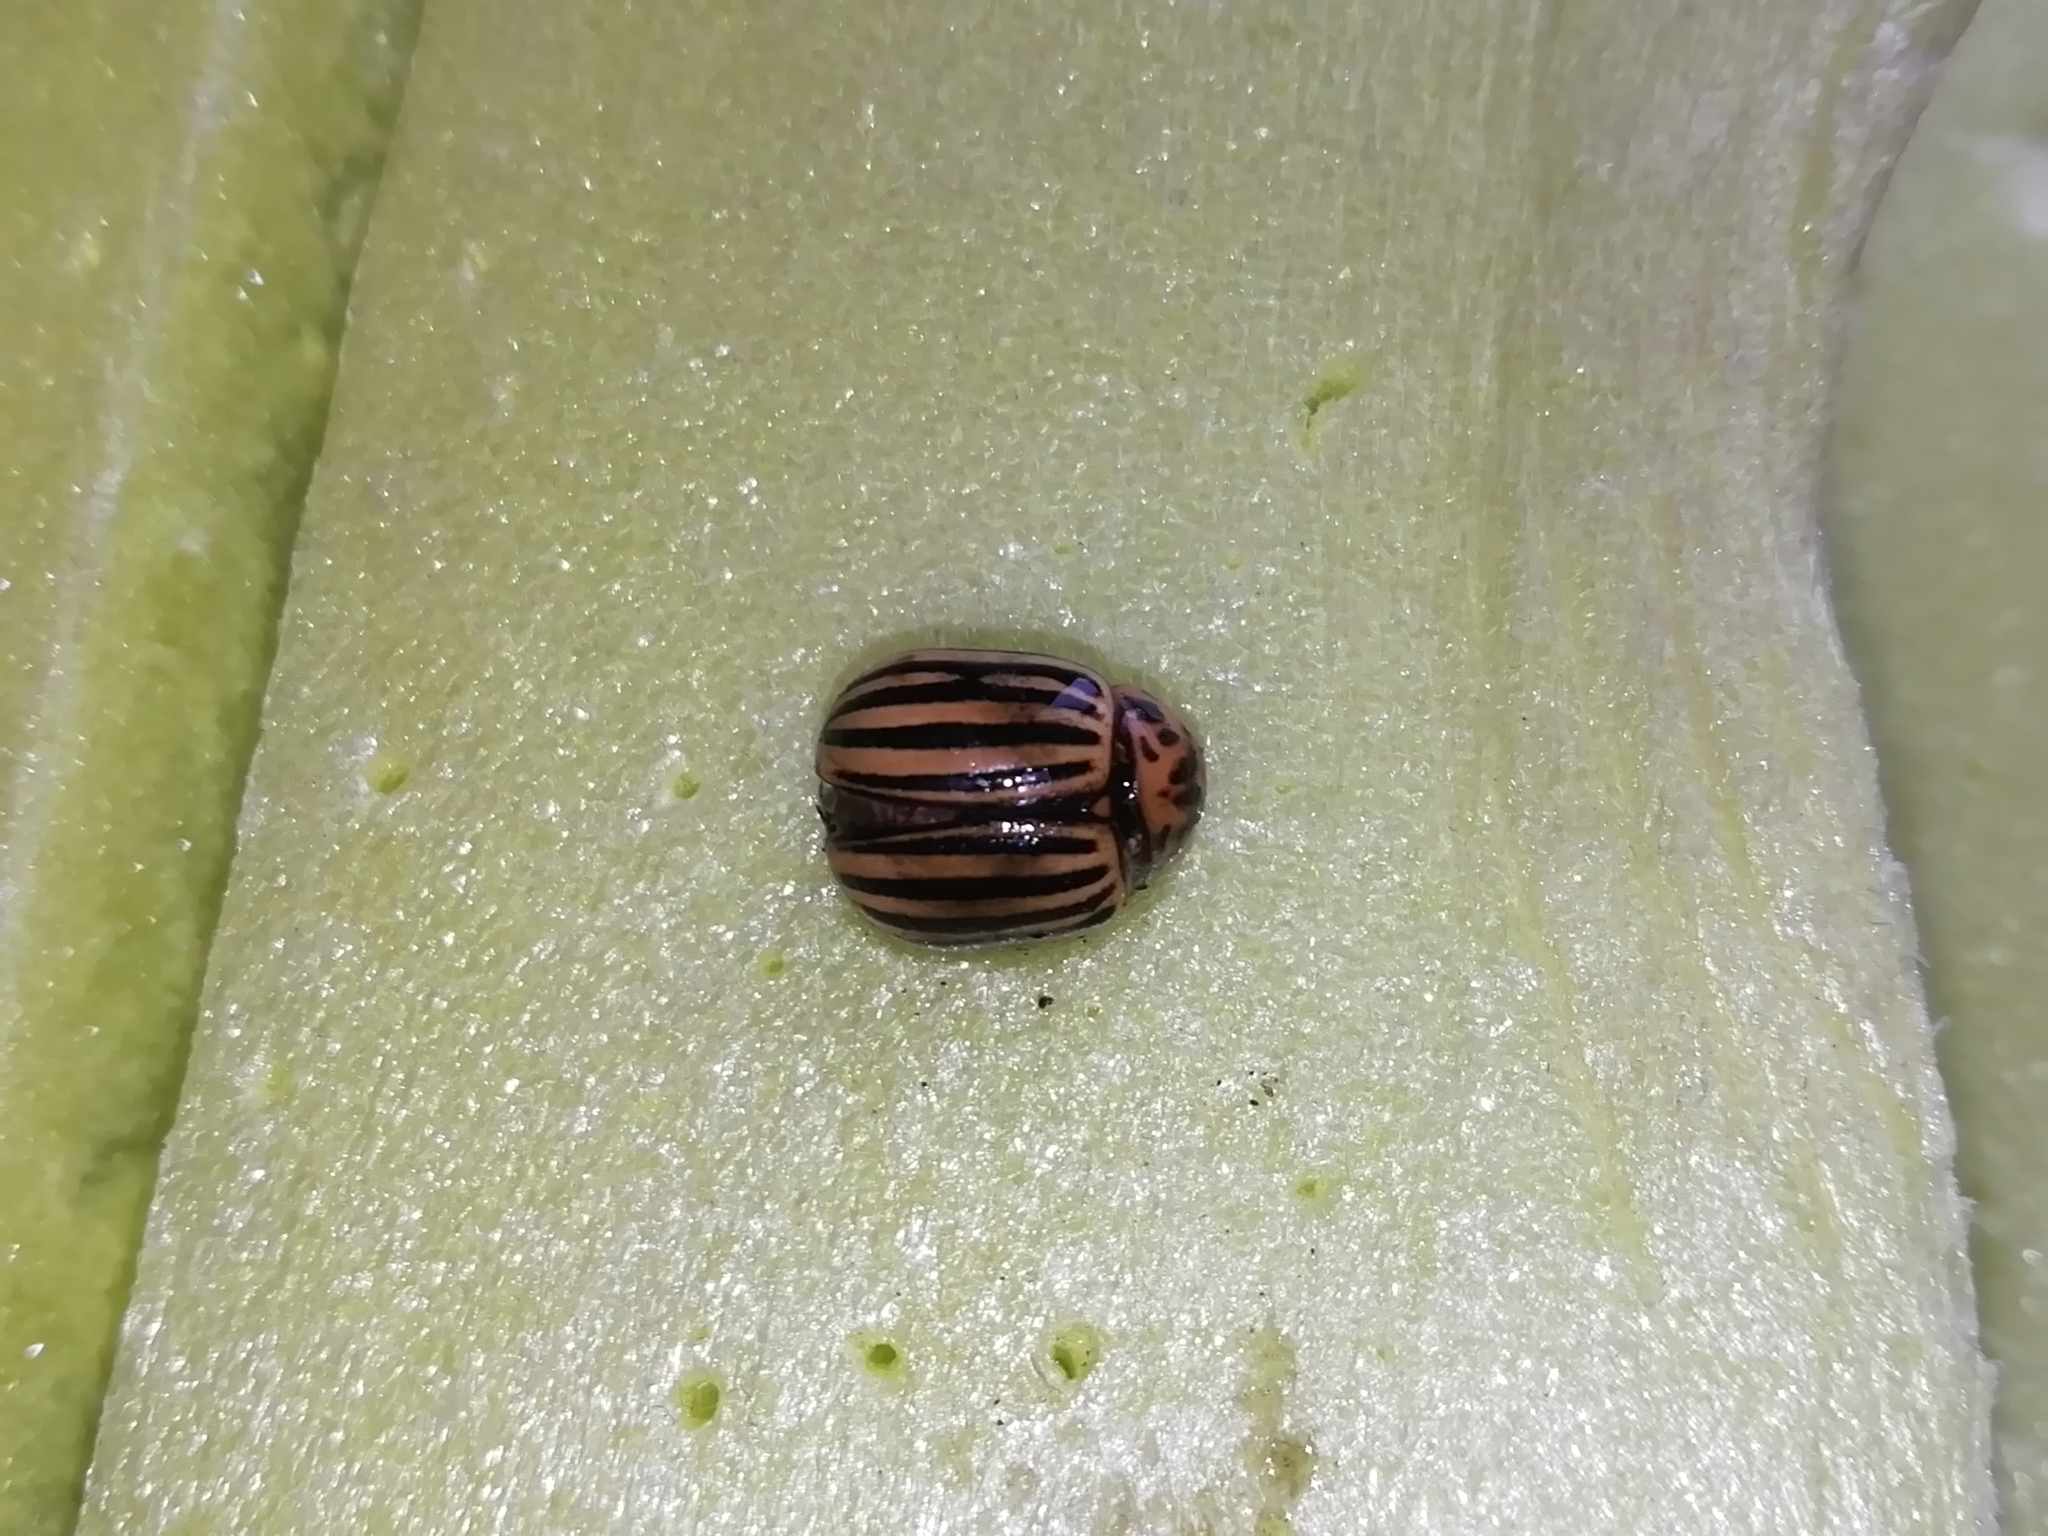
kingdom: Animalia
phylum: Arthropoda
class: Insecta
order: Coleoptera
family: Chrysomelidae
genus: Leptinotarsa
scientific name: Leptinotarsa decemlineata
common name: Colorado potato beetle
